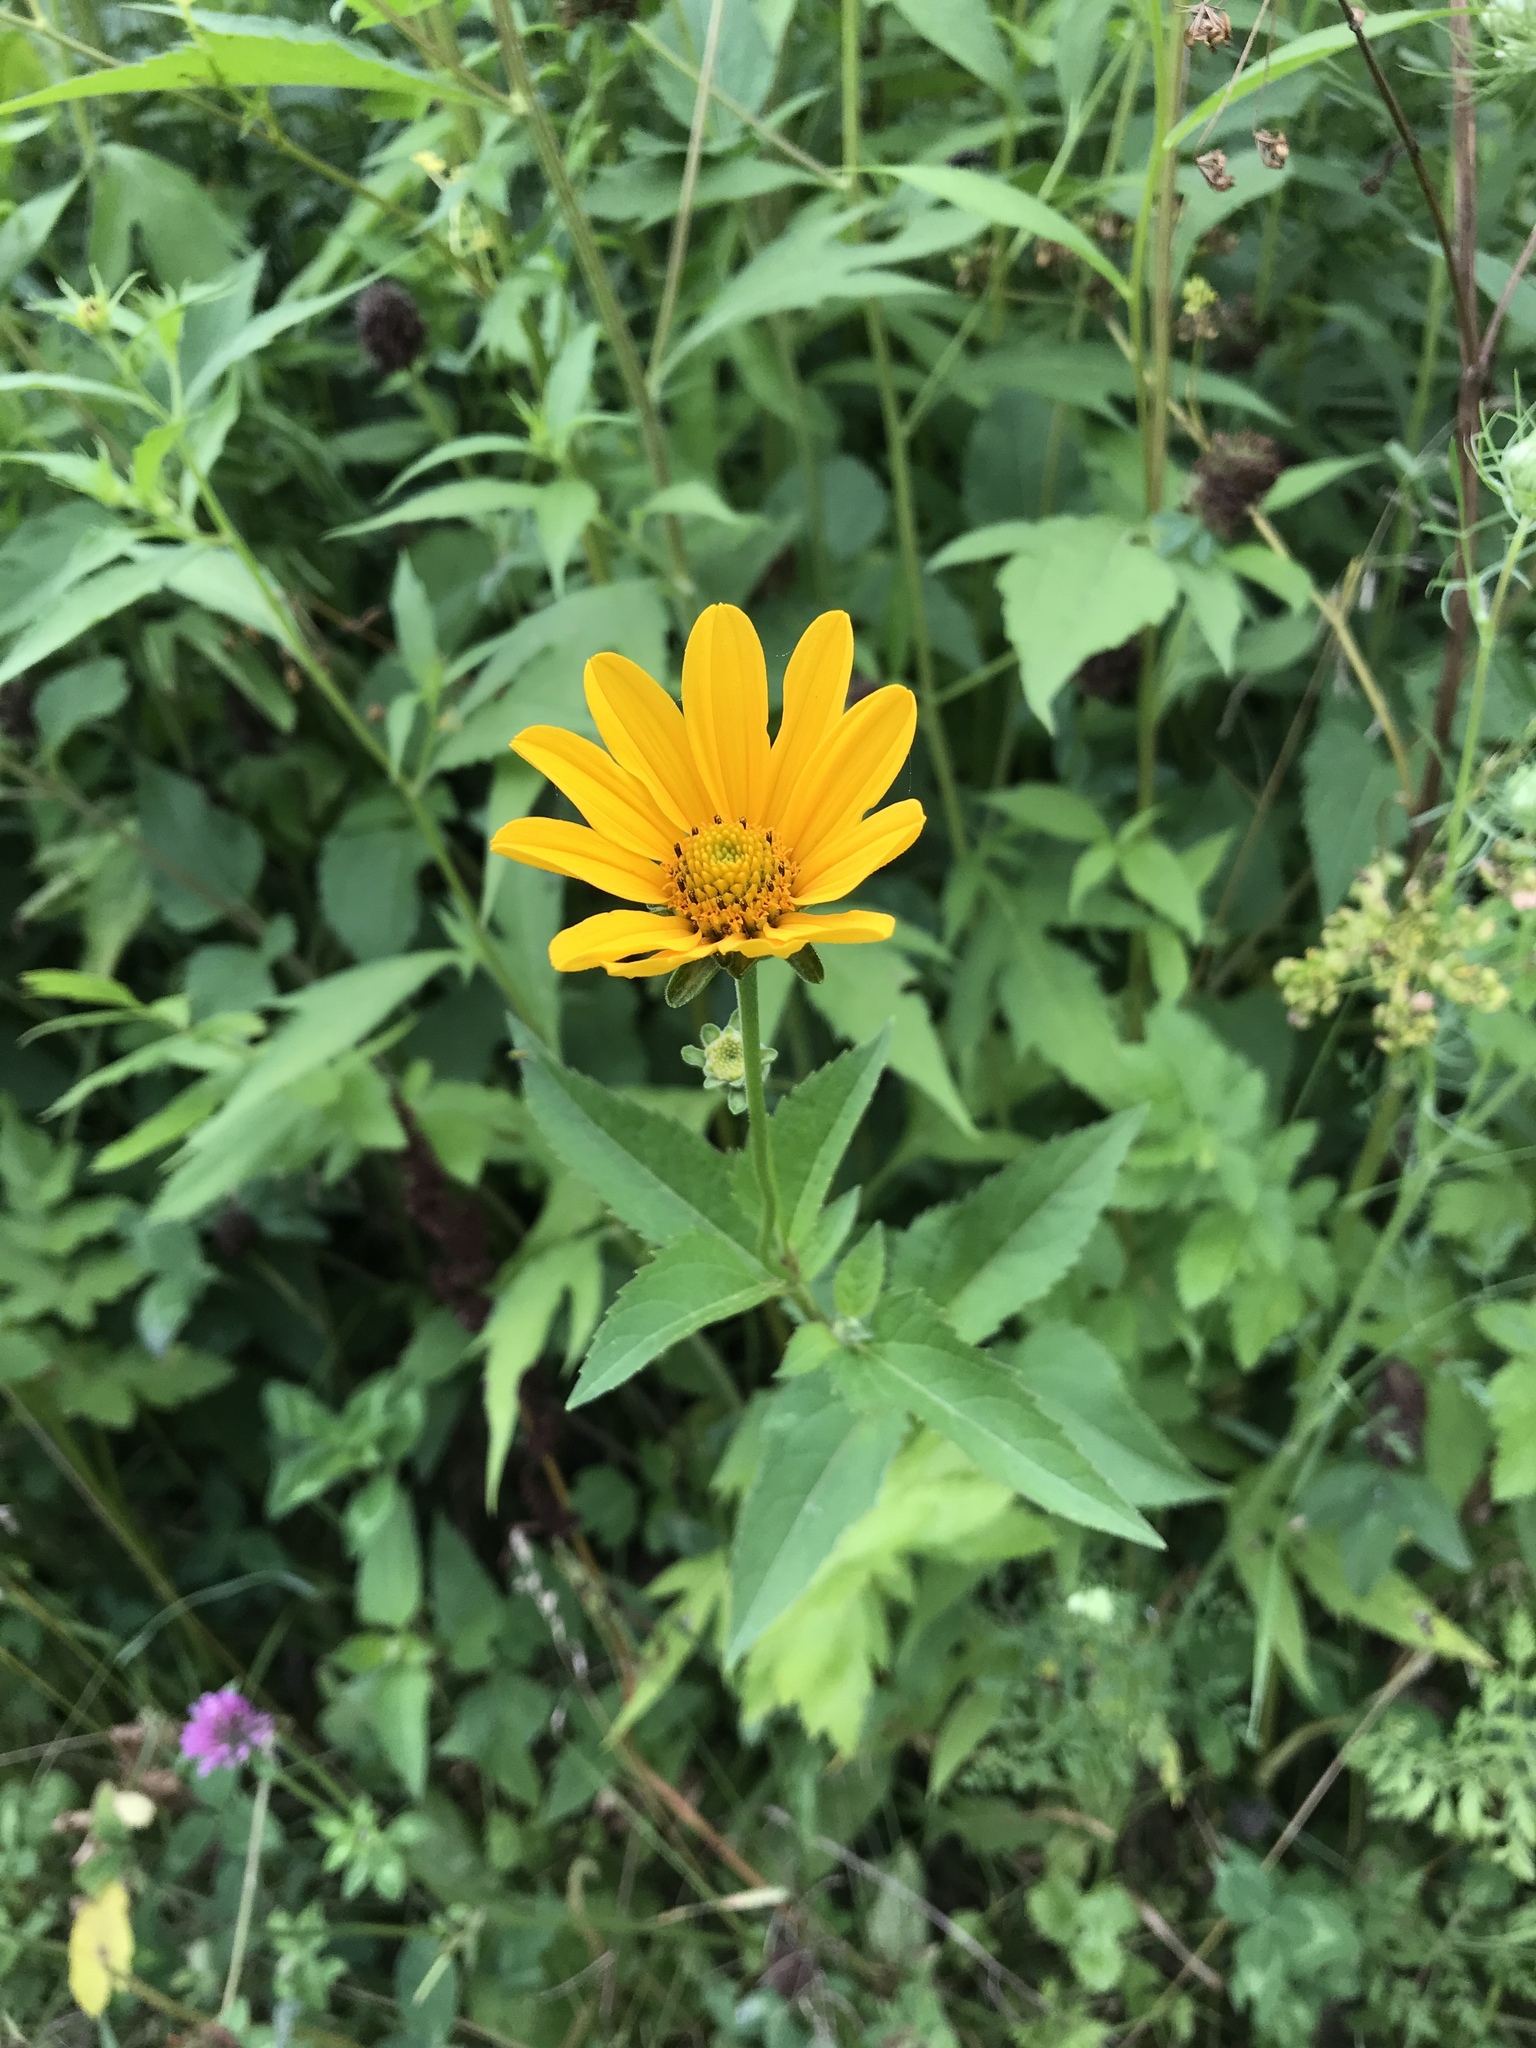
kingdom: Plantae
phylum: Tracheophyta
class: Magnoliopsida
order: Asterales
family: Asteraceae
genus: Heliopsis
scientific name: Heliopsis helianthoides
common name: False sunflower
